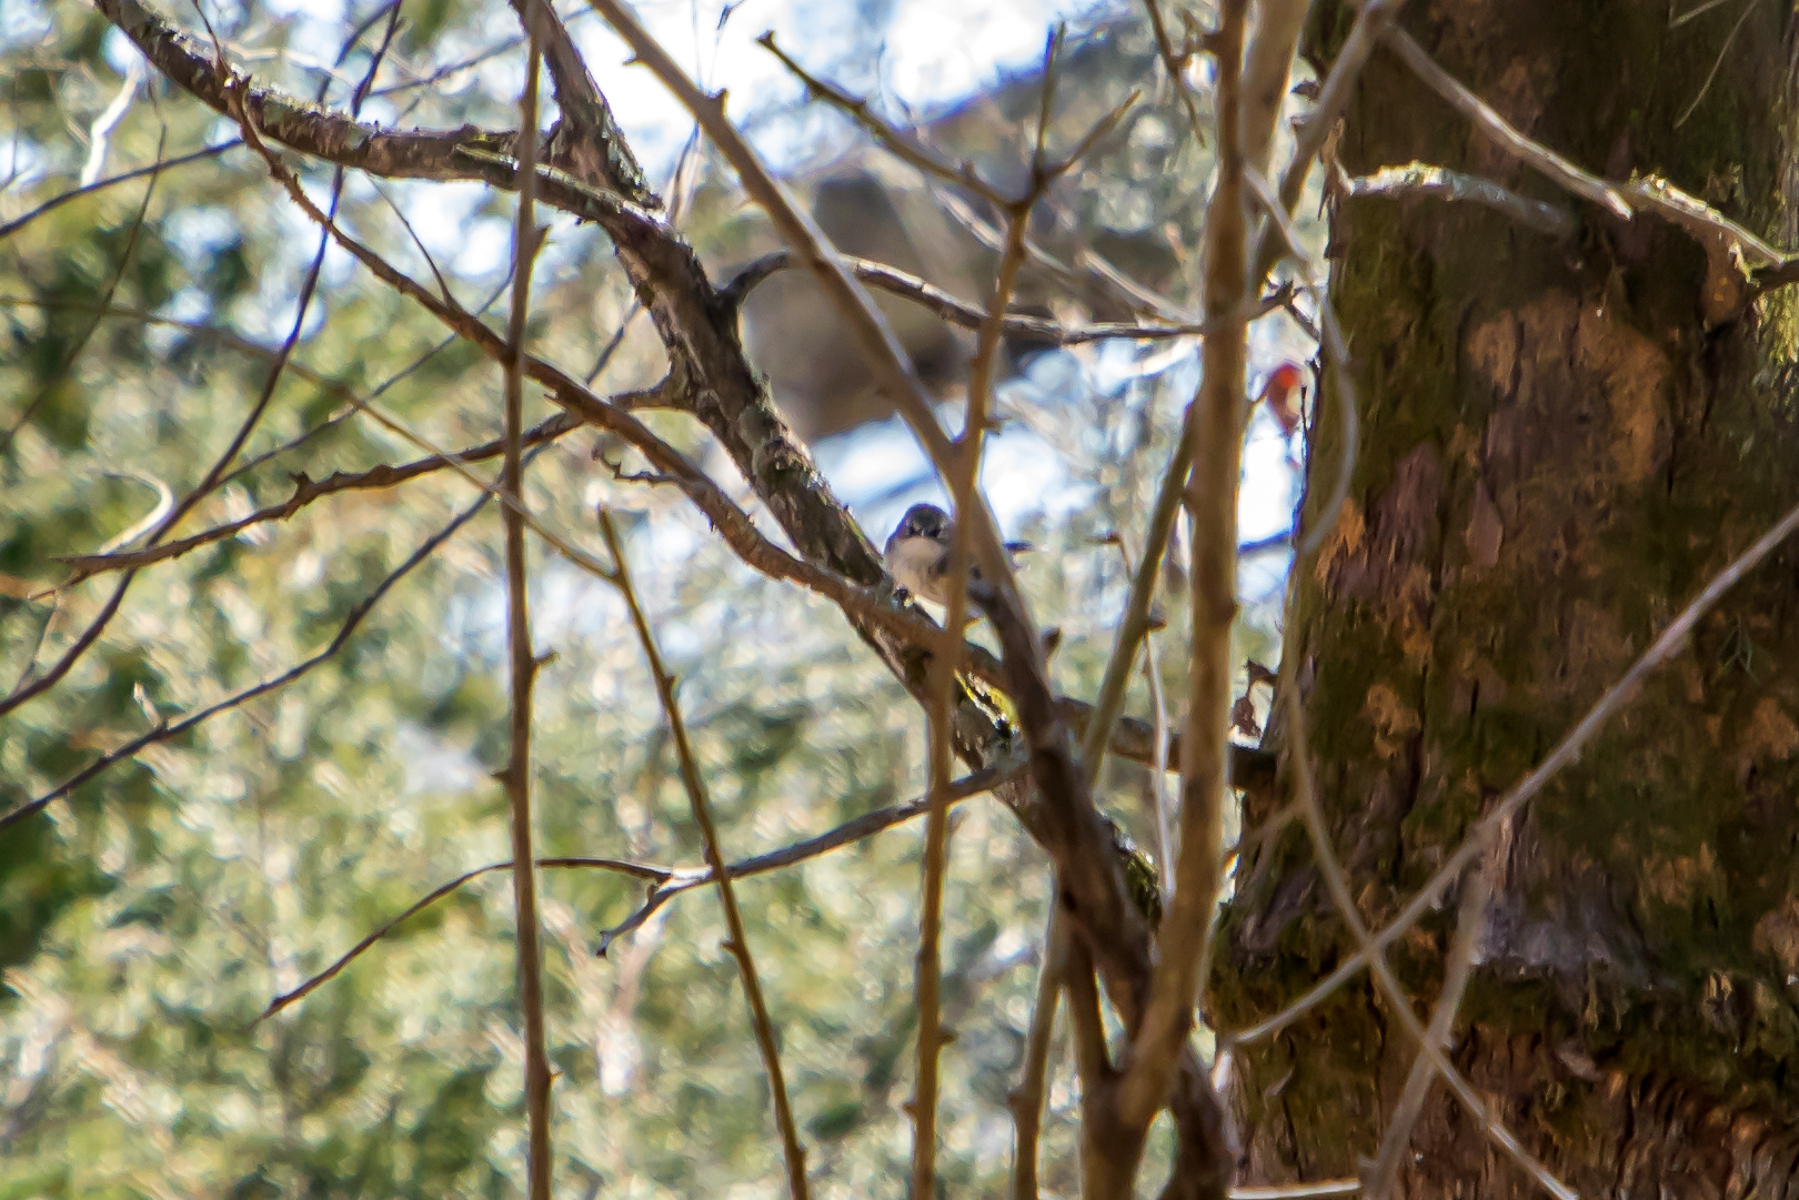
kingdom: Animalia
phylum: Chordata
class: Aves
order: Passeriformes
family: Parulidae
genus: Setophaga
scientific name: Setophaga coronata
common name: Myrtle warbler
